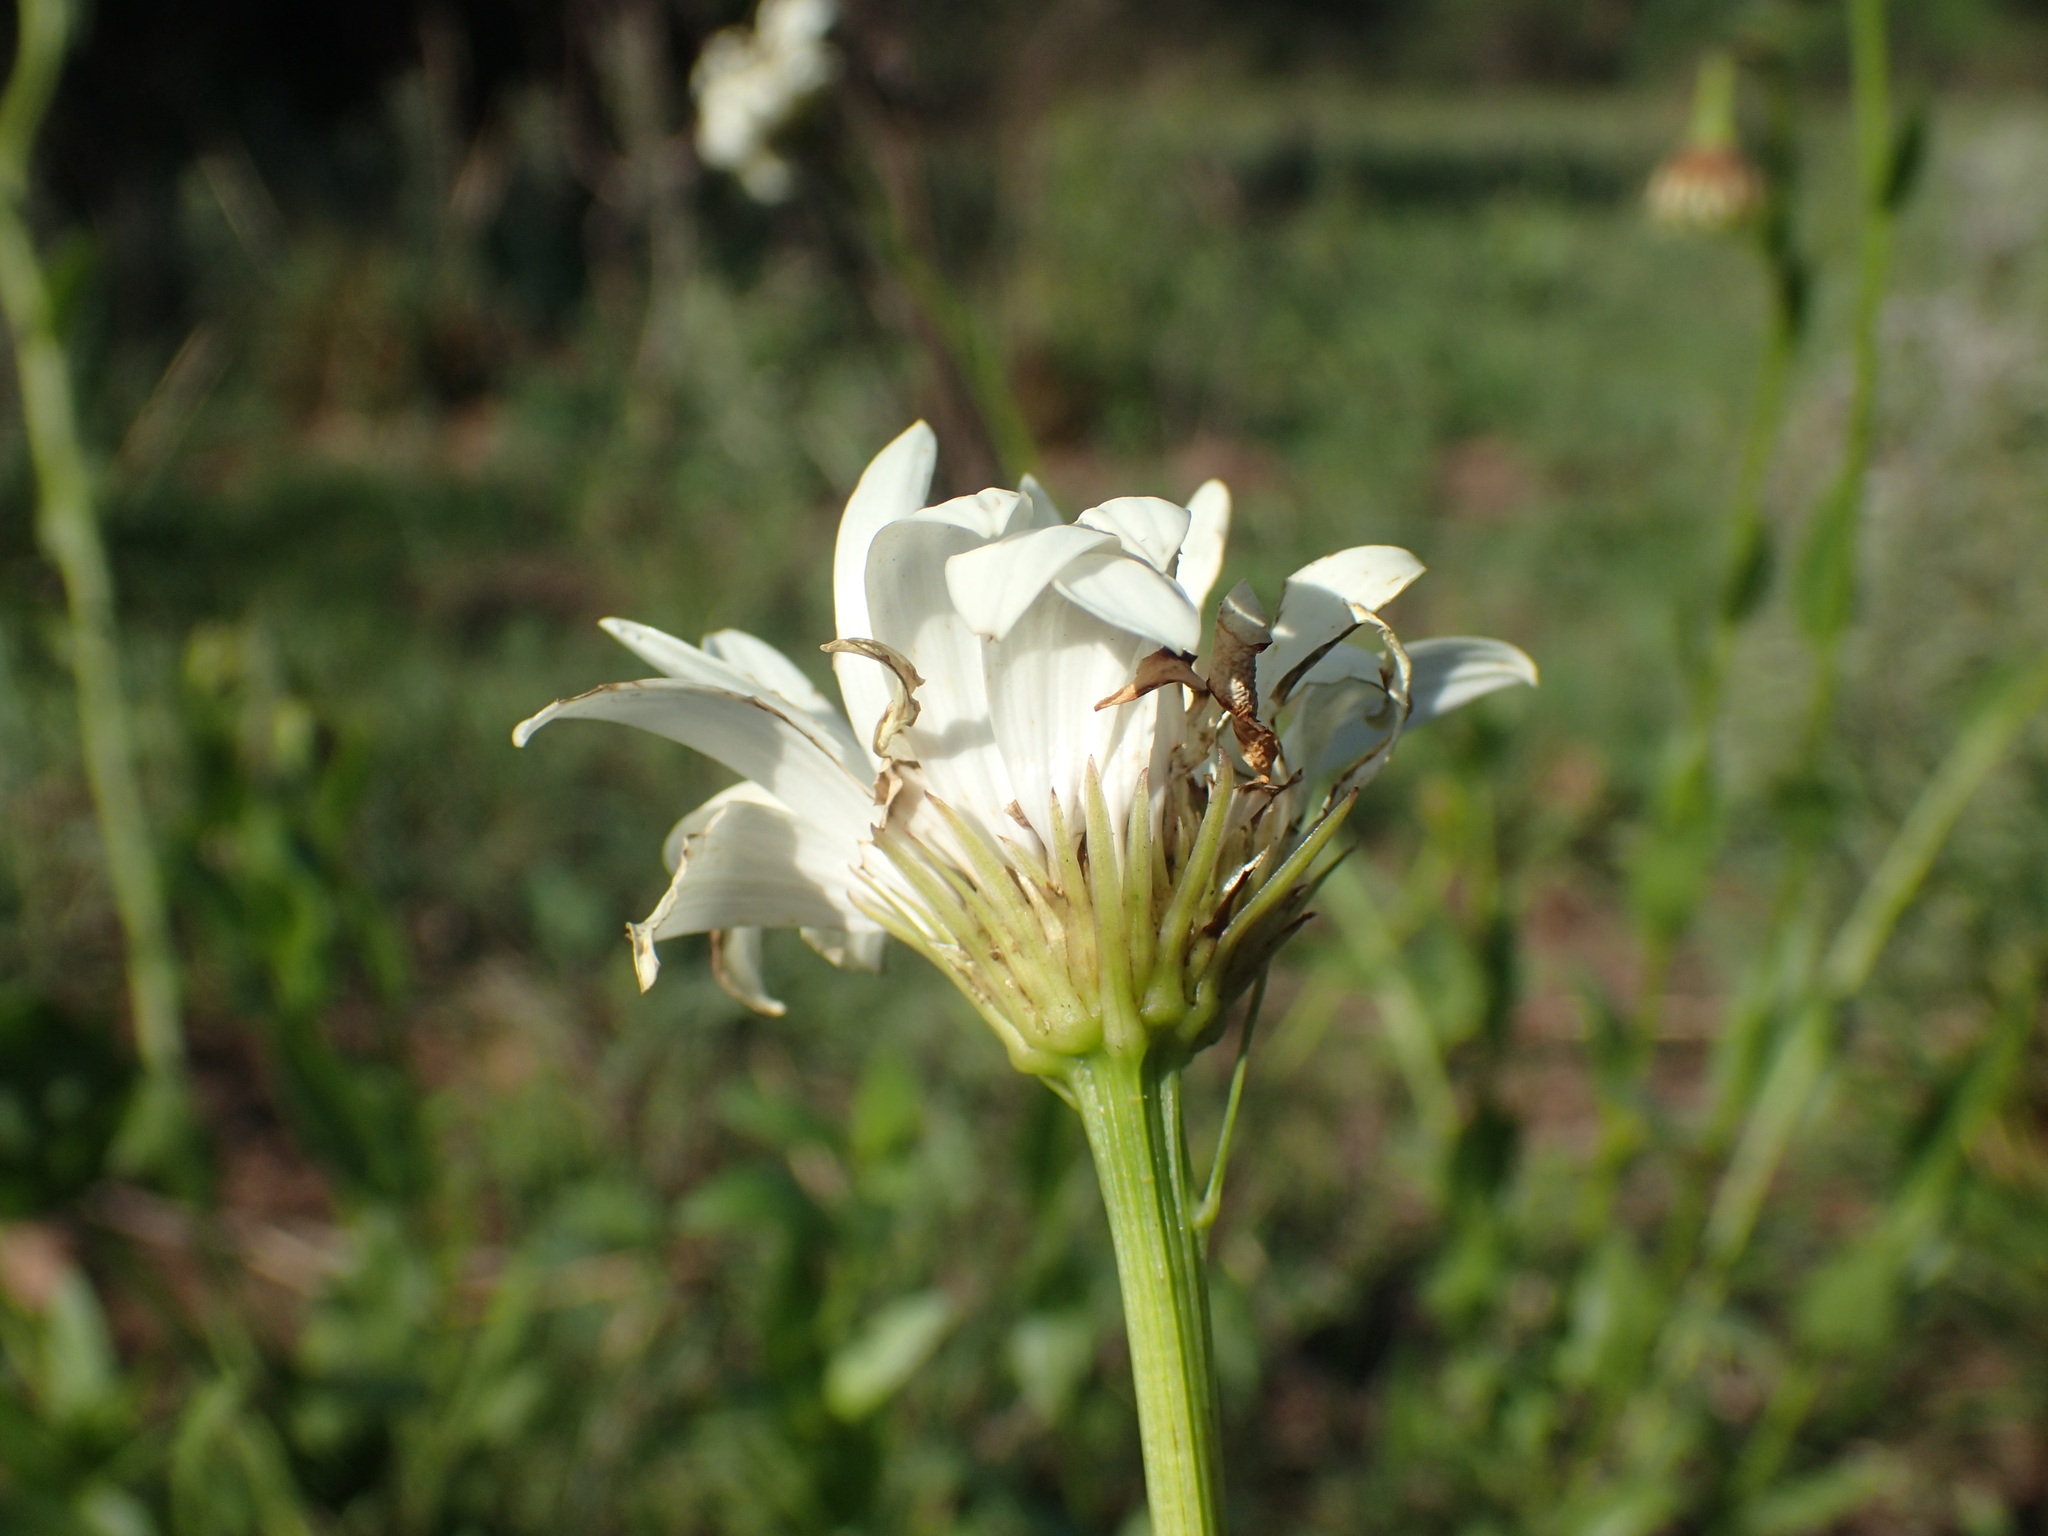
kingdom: Plantae
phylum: Tracheophyta
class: Magnoliopsida
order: Asterales
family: Asteraceae
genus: Callilepis
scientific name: Callilepis laureola
